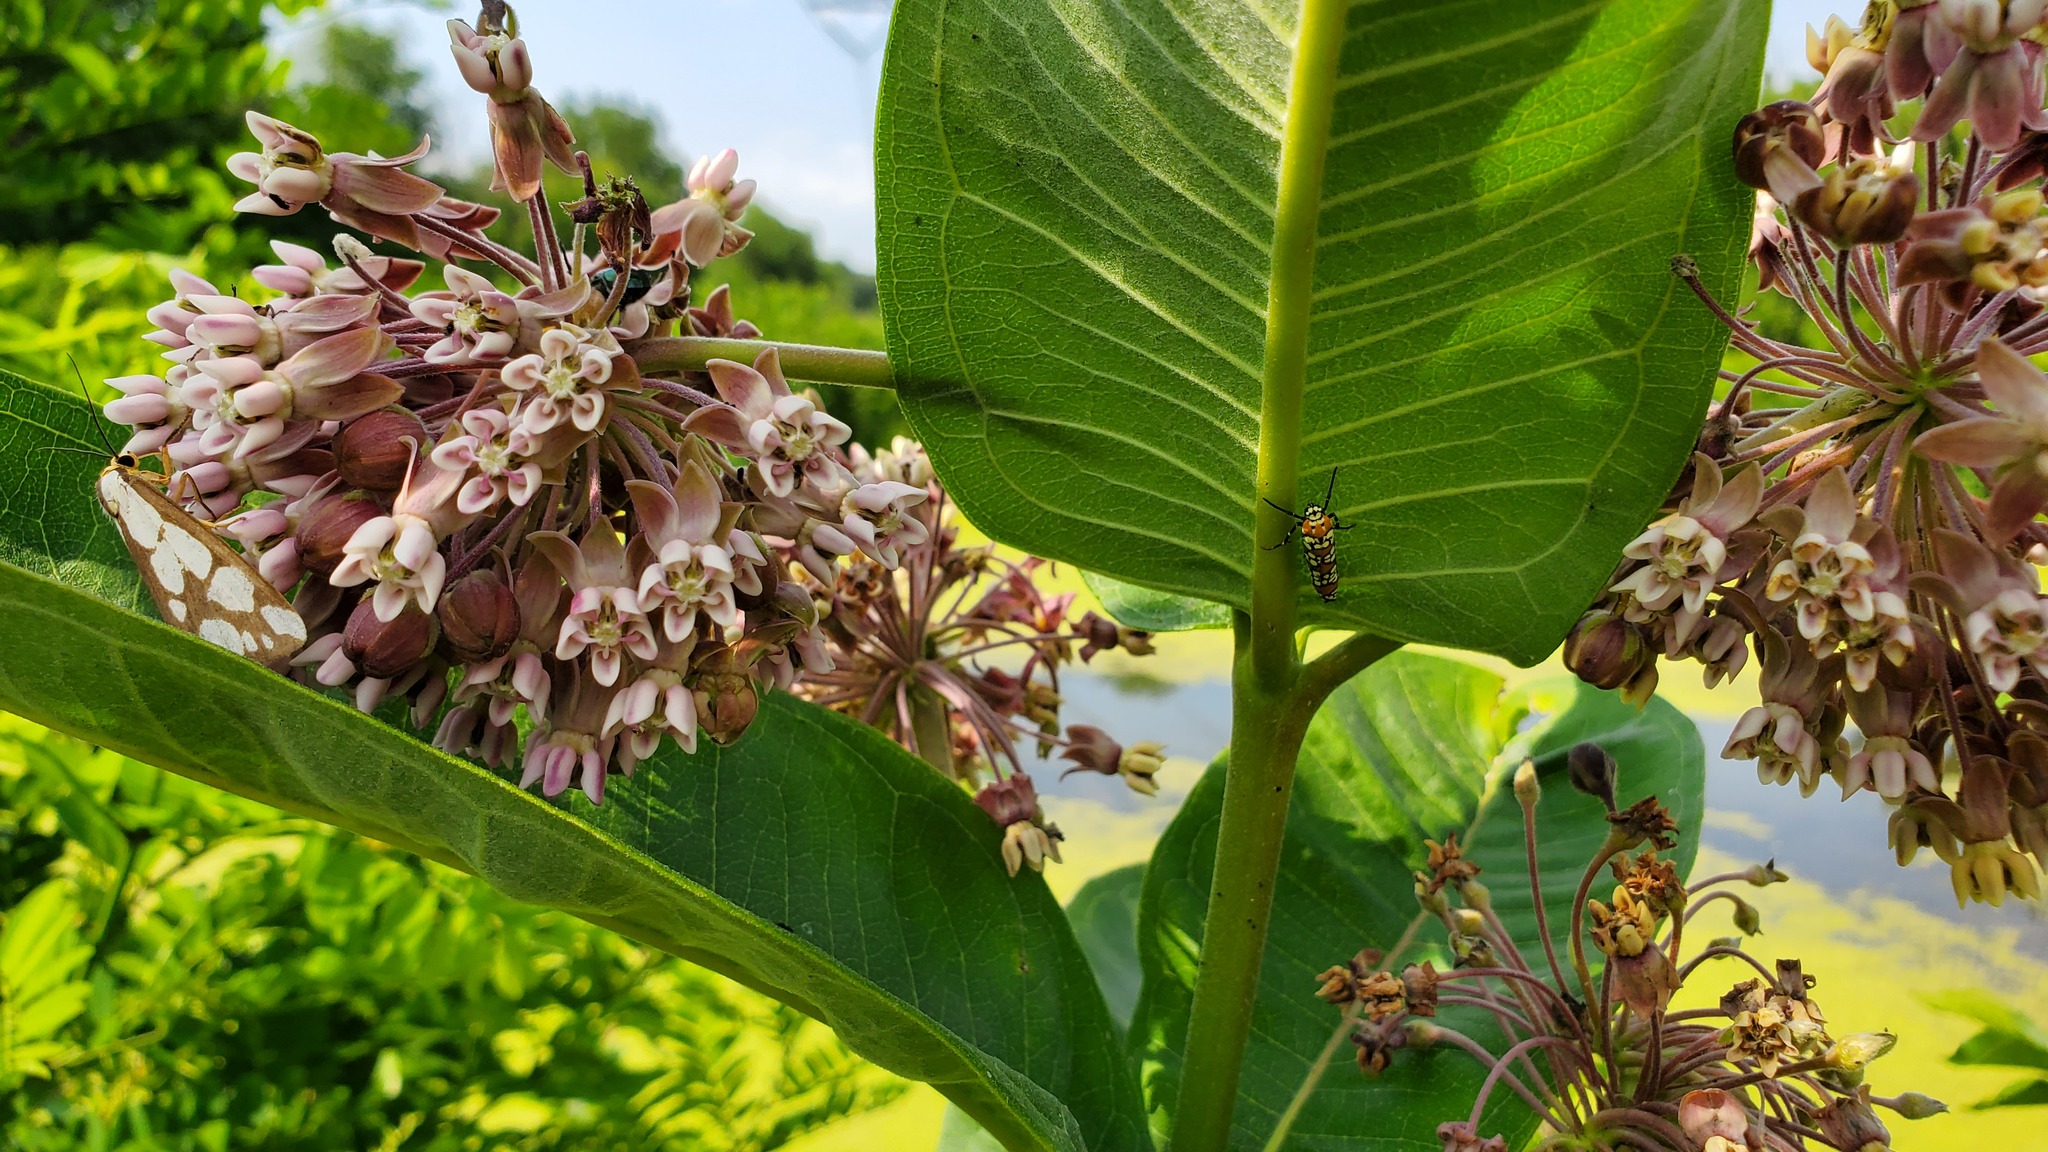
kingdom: Animalia
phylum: Arthropoda
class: Insecta
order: Lepidoptera
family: Attevidae
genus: Atteva
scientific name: Atteva punctella
